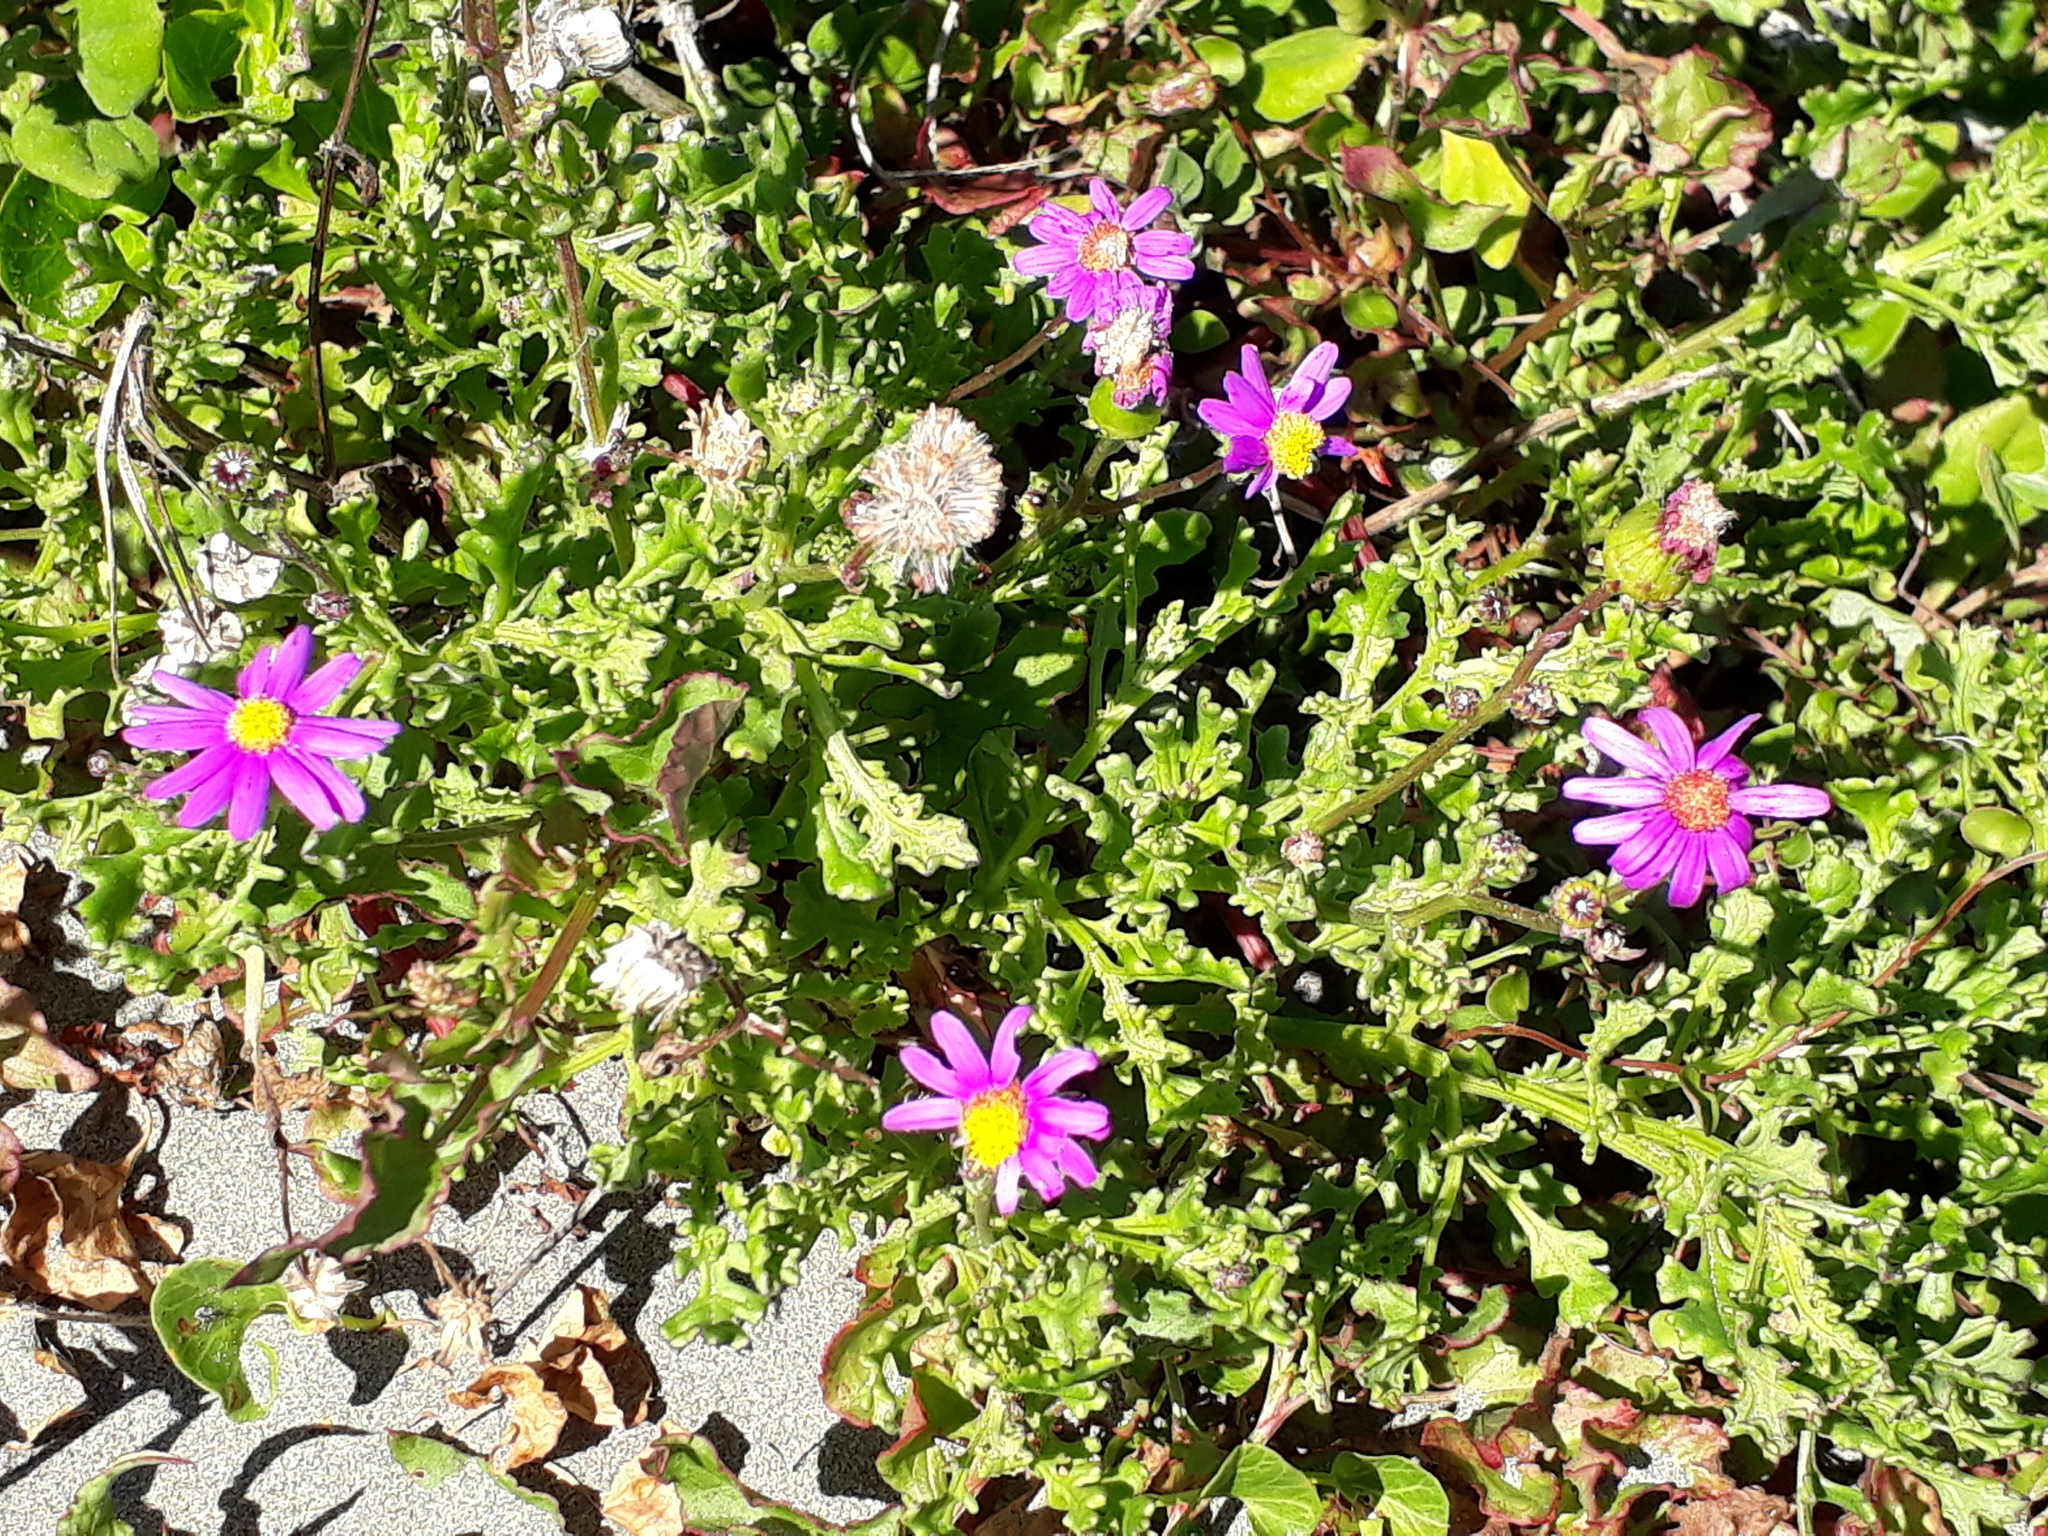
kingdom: Plantae
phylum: Tracheophyta
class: Magnoliopsida
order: Asterales
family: Asteraceae
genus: Senecio
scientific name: Senecio elegans
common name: Purple groundsel
